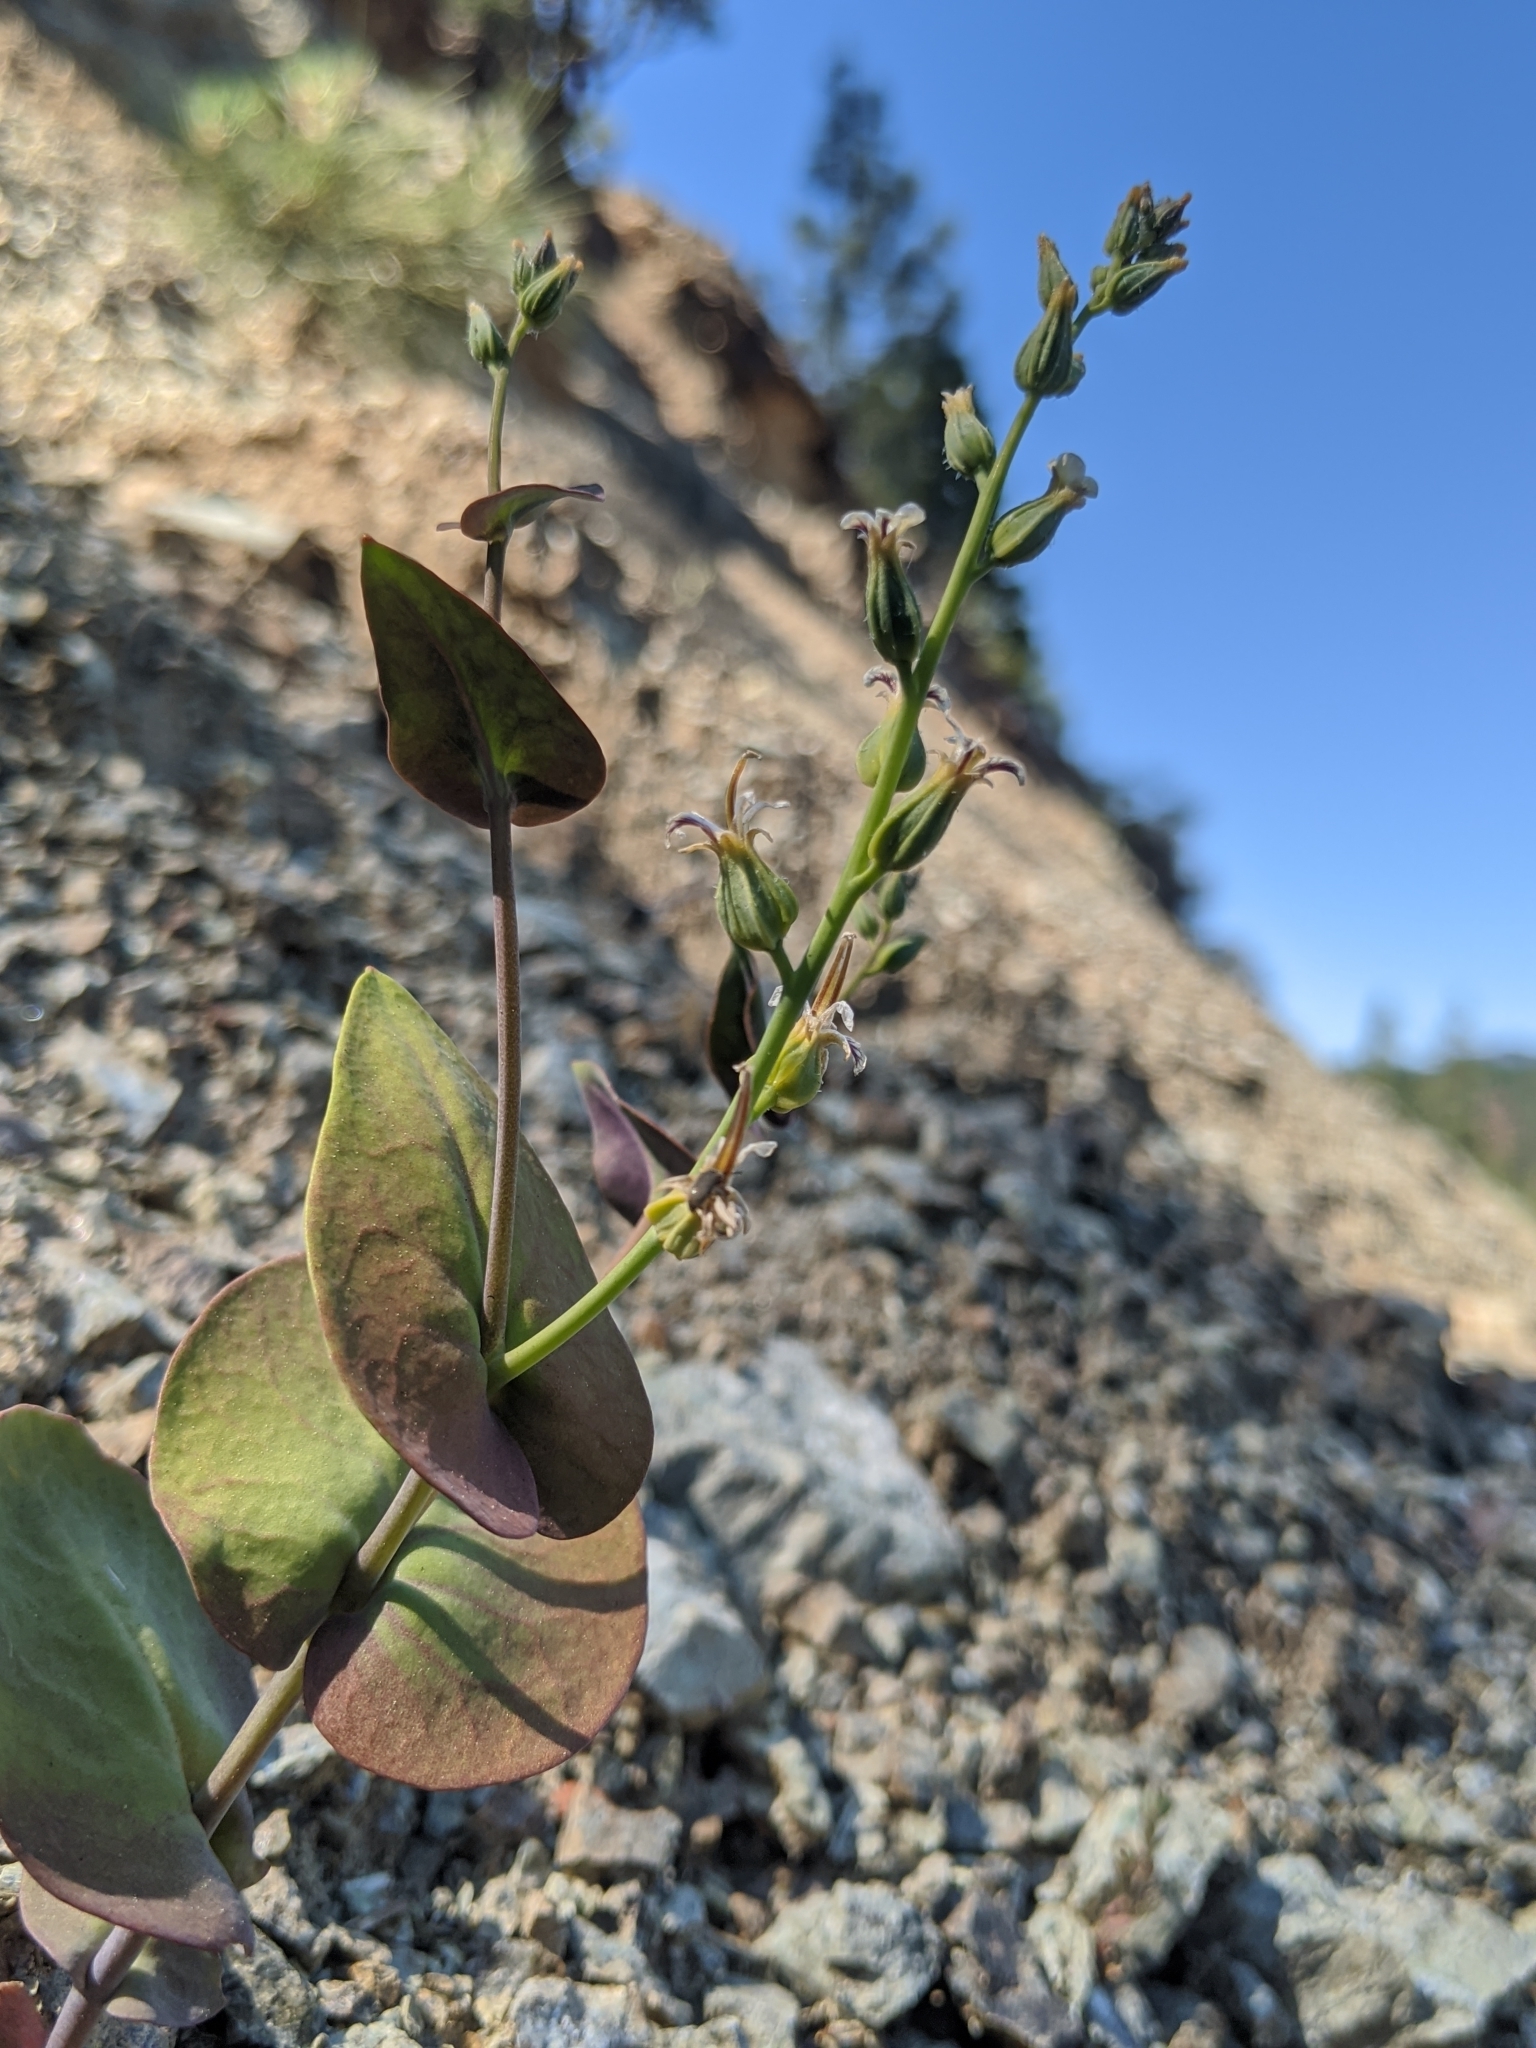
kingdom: Plantae
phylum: Tracheophyta
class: Magnoliopsida
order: Brassicales
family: Brassicaceae
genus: Streptanthus
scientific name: Streptanthus drepanoides
